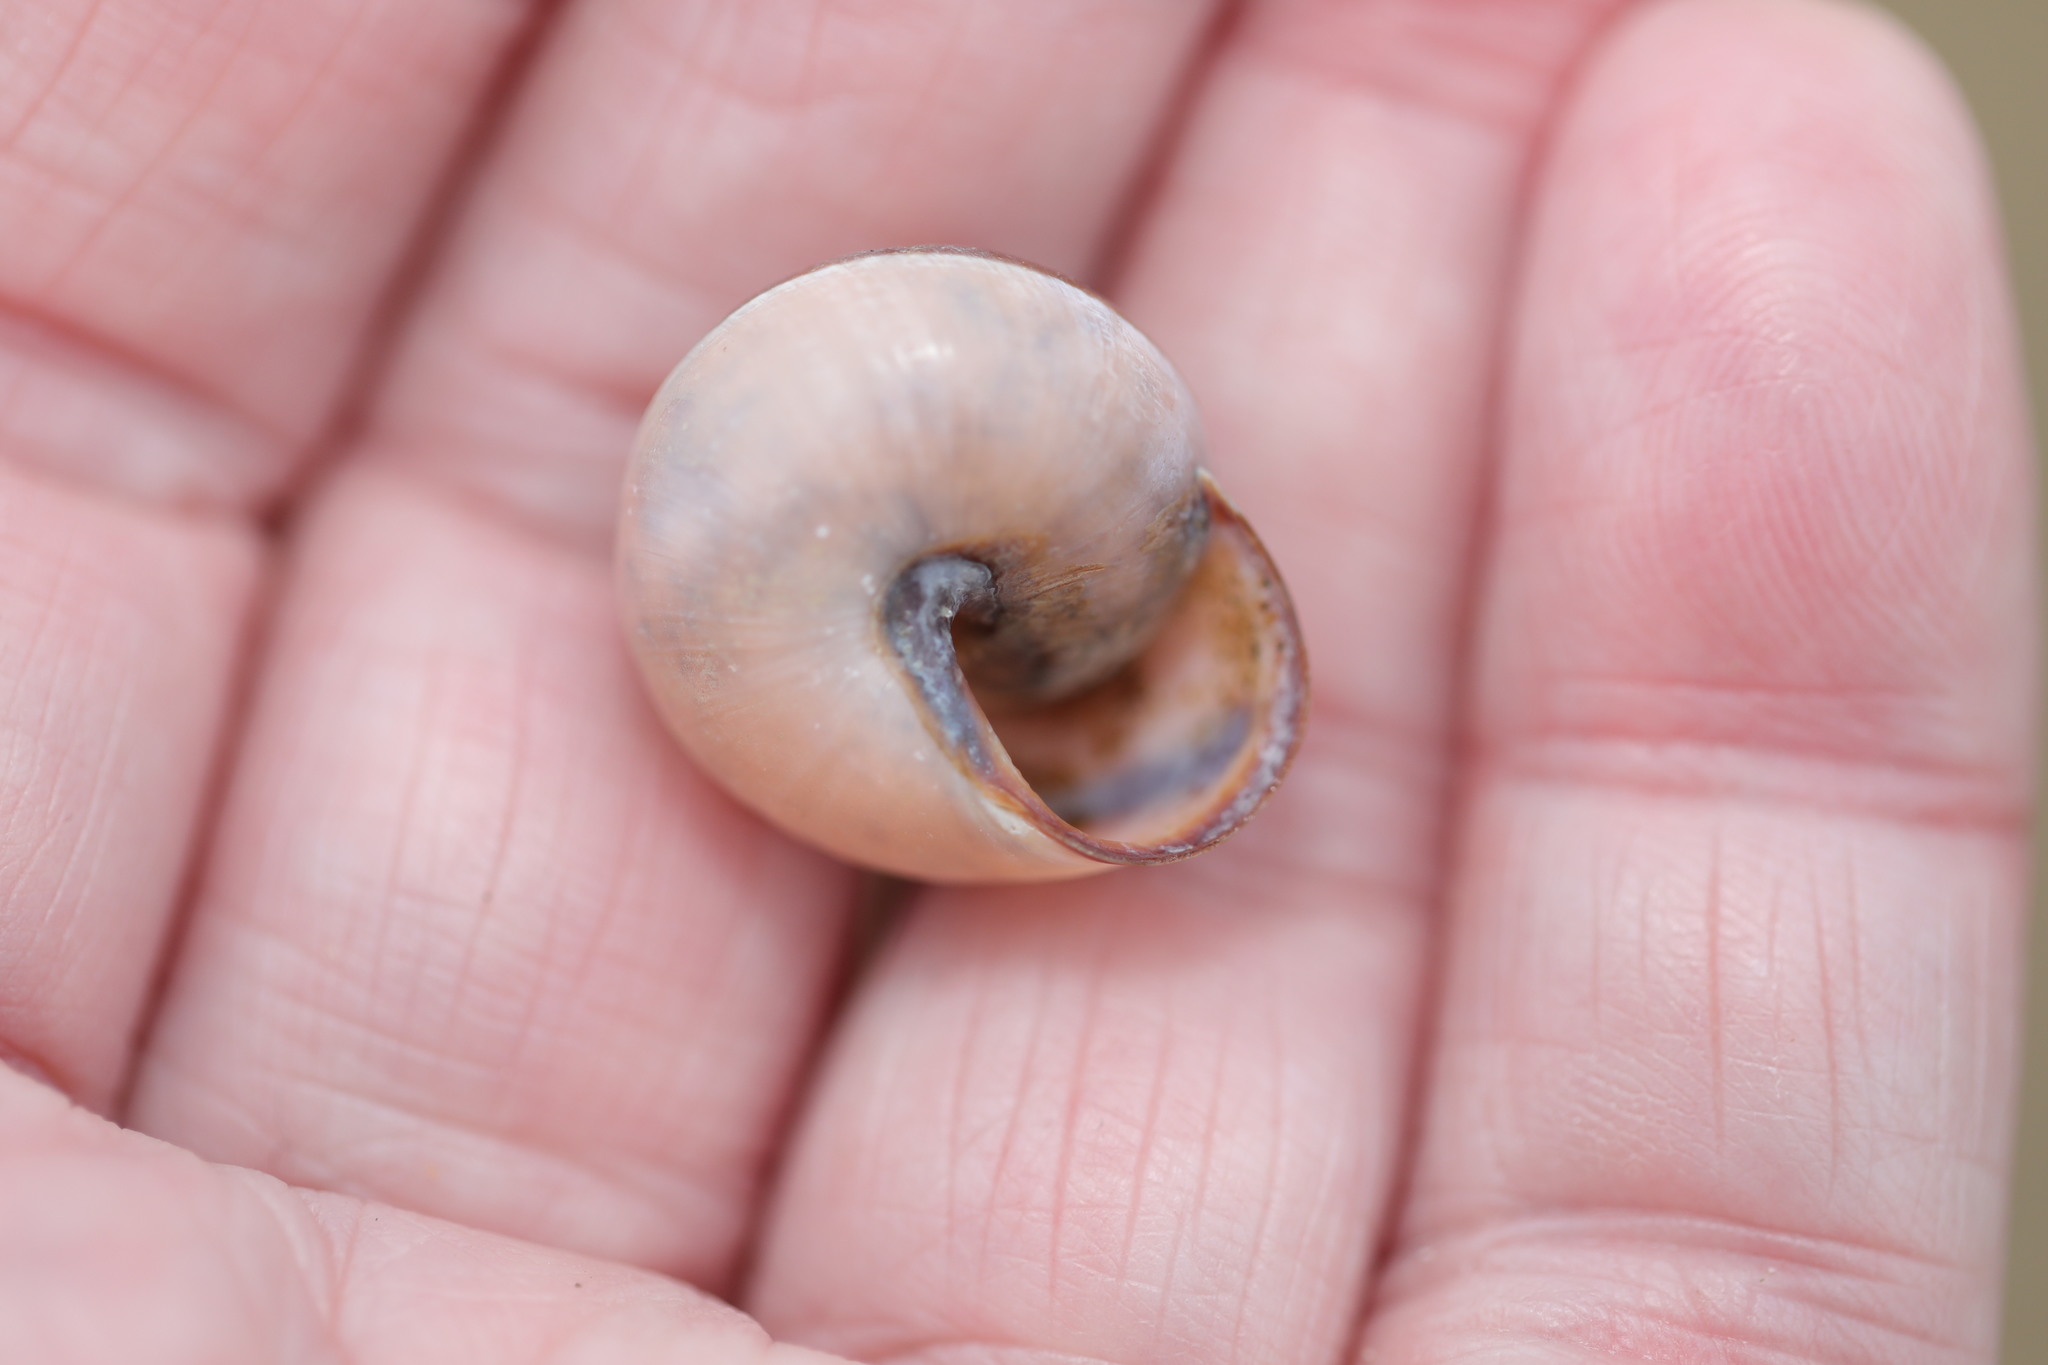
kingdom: Animalia
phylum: Mollusca
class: Gastropoda
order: Stylommatophora
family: Helicidae
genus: Cepaea
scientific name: Cepaea nemoralis
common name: Grovesnail
